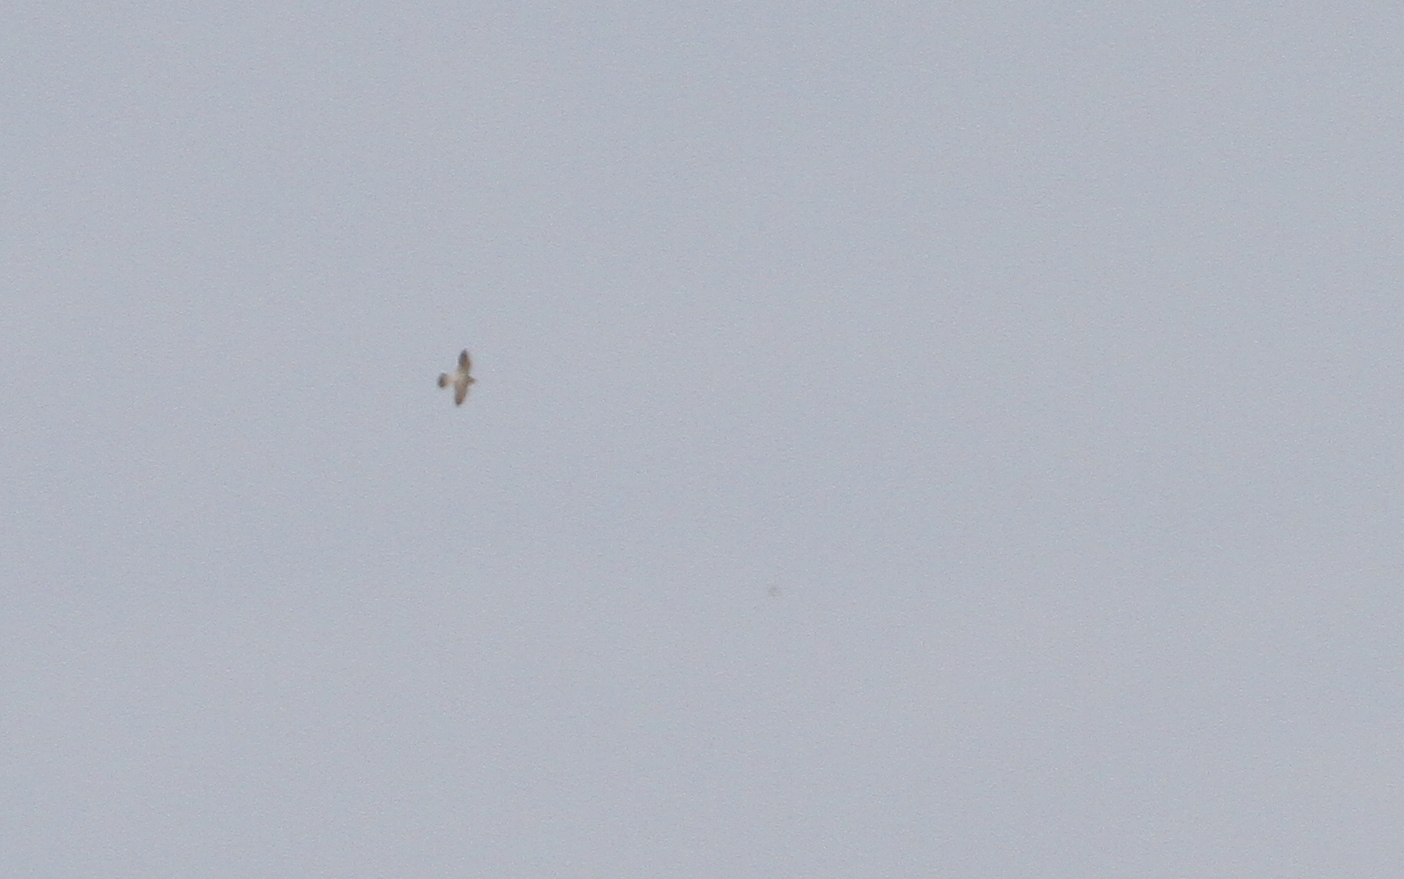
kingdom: Animalia
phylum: Chordata
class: Aves
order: Falconiformes
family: Falconidae
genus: Falco
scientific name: Falco peregrinus
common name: Peregrine falcon
